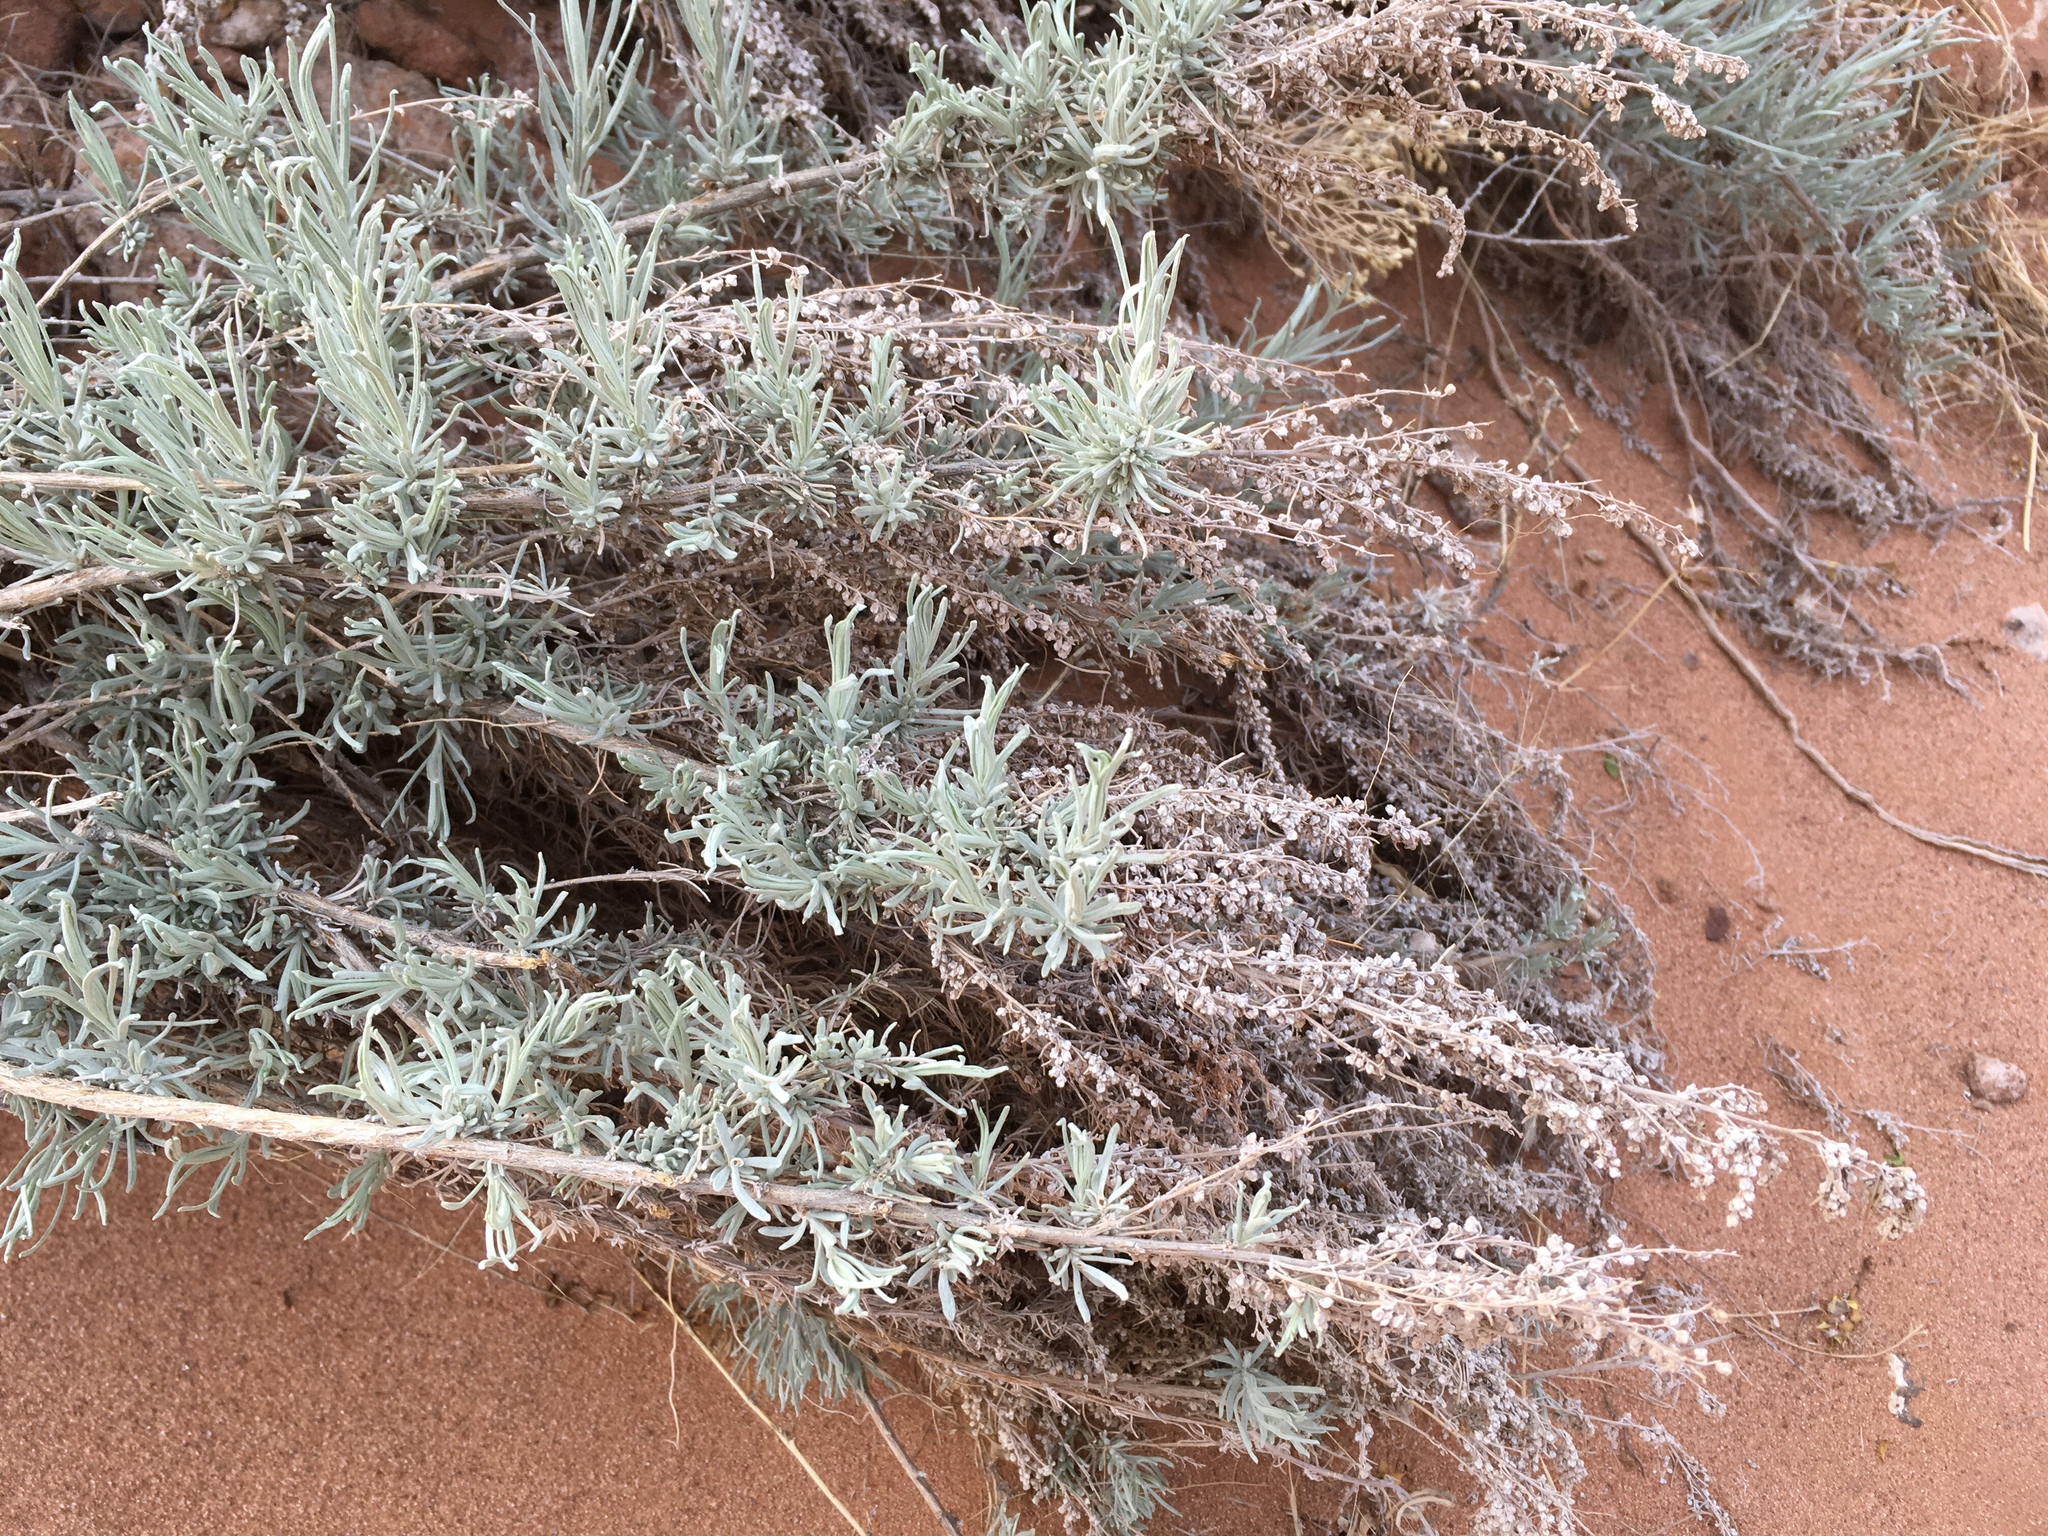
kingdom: Plantae
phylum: Tracheophyta
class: Magnoliopsida
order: Asterales
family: Asteraceae
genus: Artemisia
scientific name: Artemisia filifolia
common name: Sand-sage
